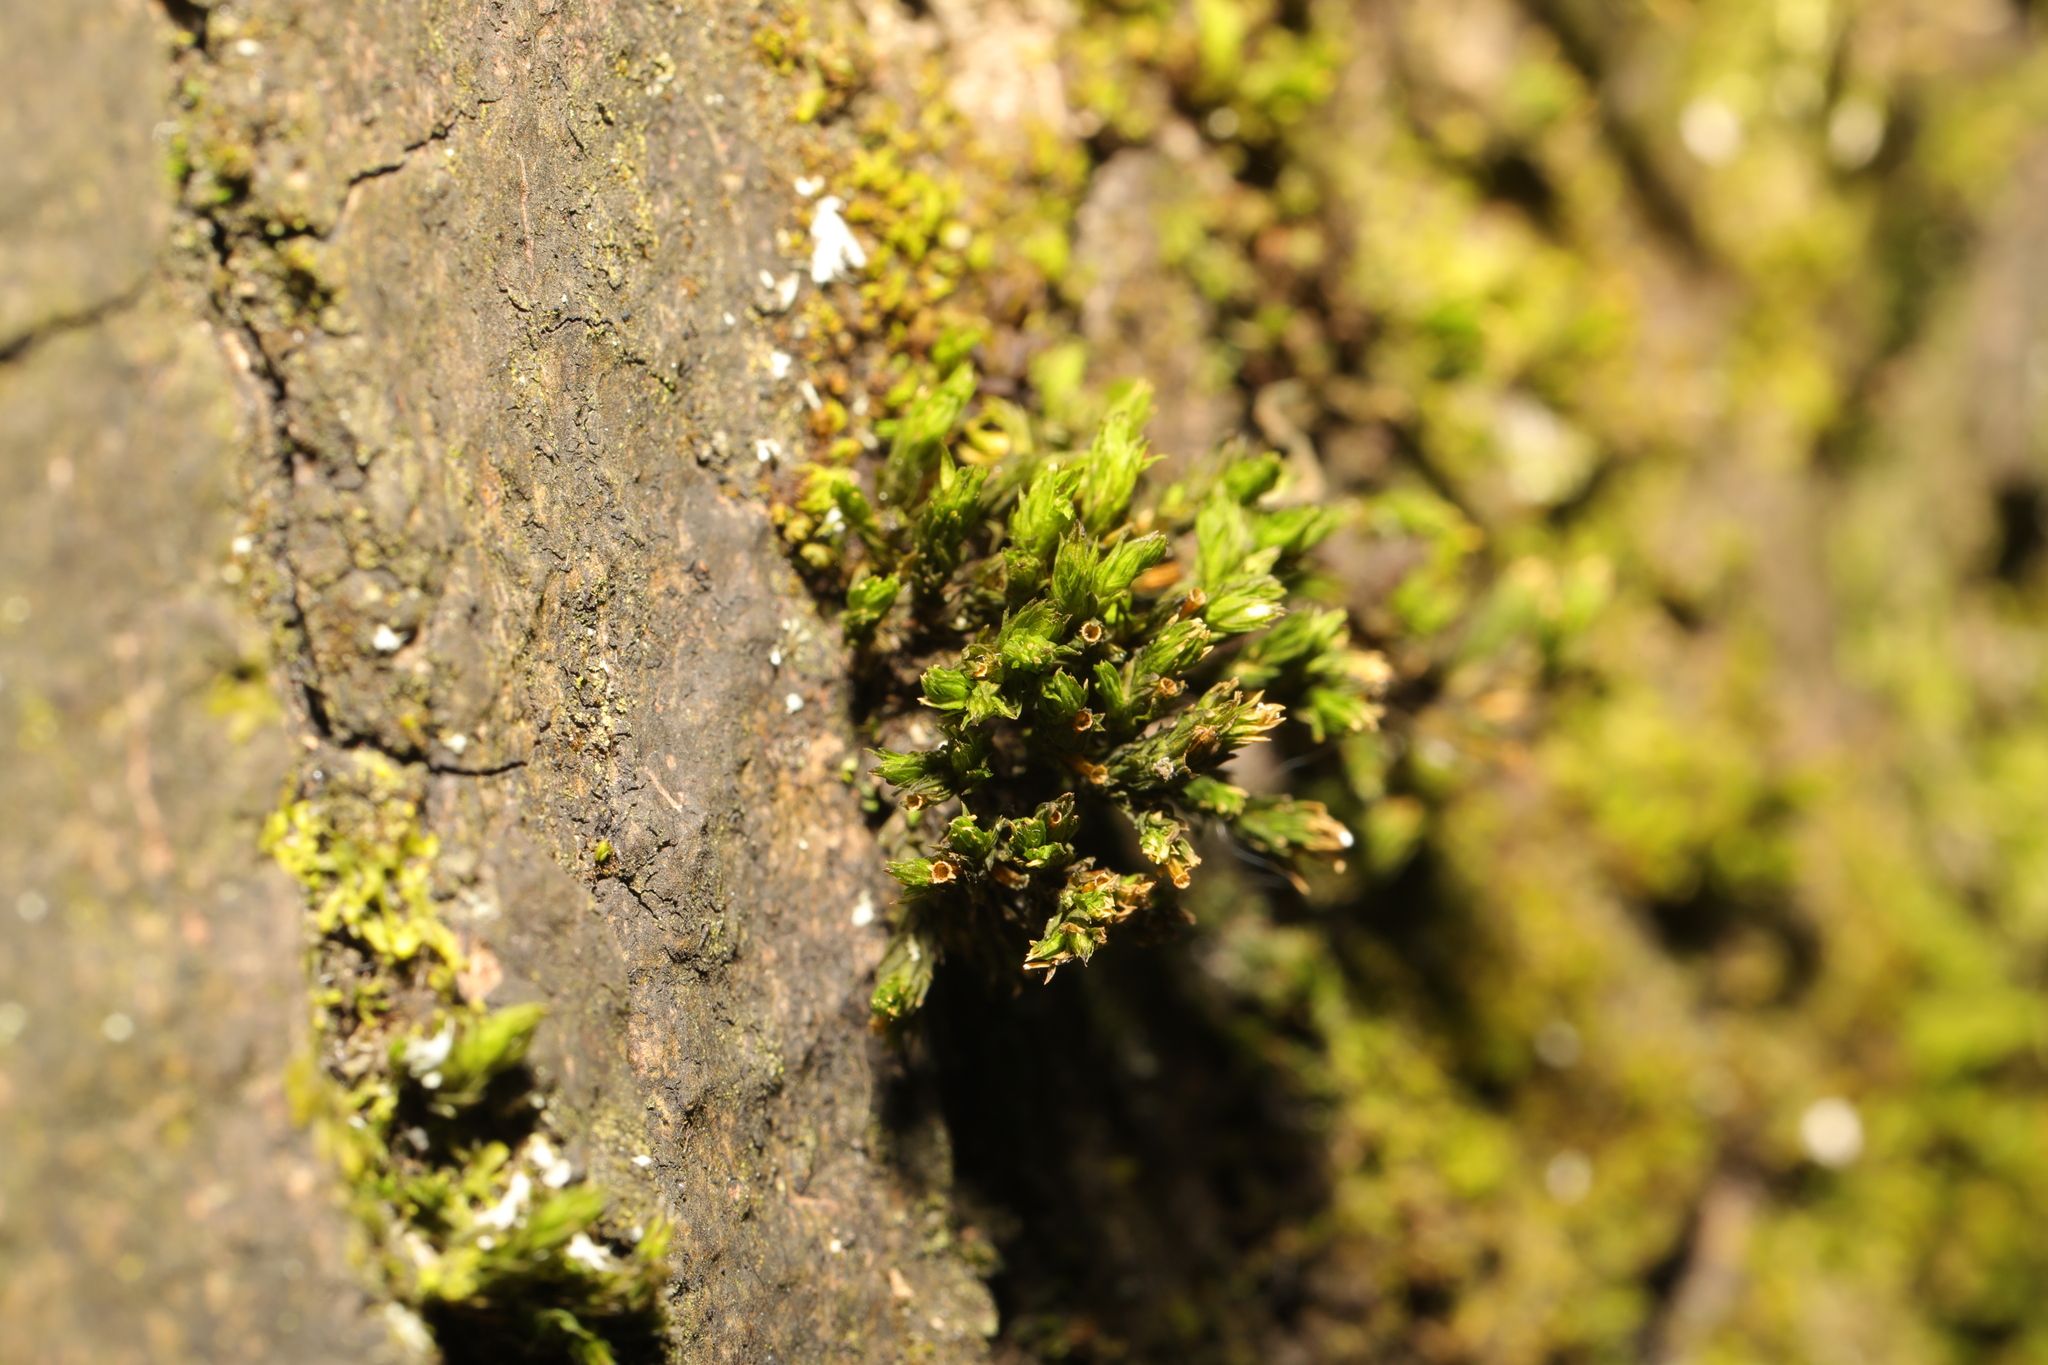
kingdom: Plantae
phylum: Bryophyta
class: Bryopsida
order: Orthotrichales
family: Orthotrichaceae
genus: Lewinskya
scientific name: Lewinskya affinis
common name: Wood bristle-moss
